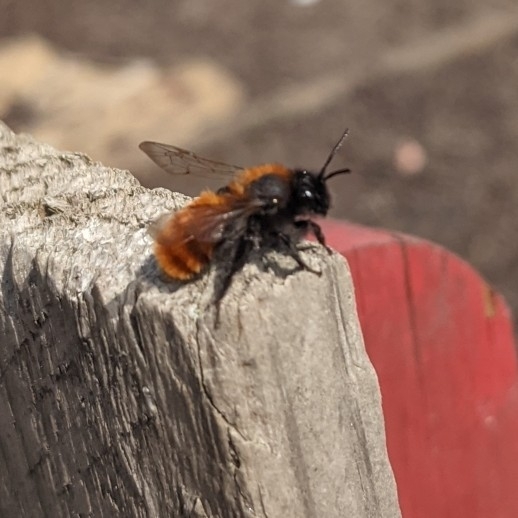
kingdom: Animalia
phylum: Arthropoda
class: Insecta
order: Hymenoptera
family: Andrenidae
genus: Andrena
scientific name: Andrena fulva
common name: Tawny mining bee
